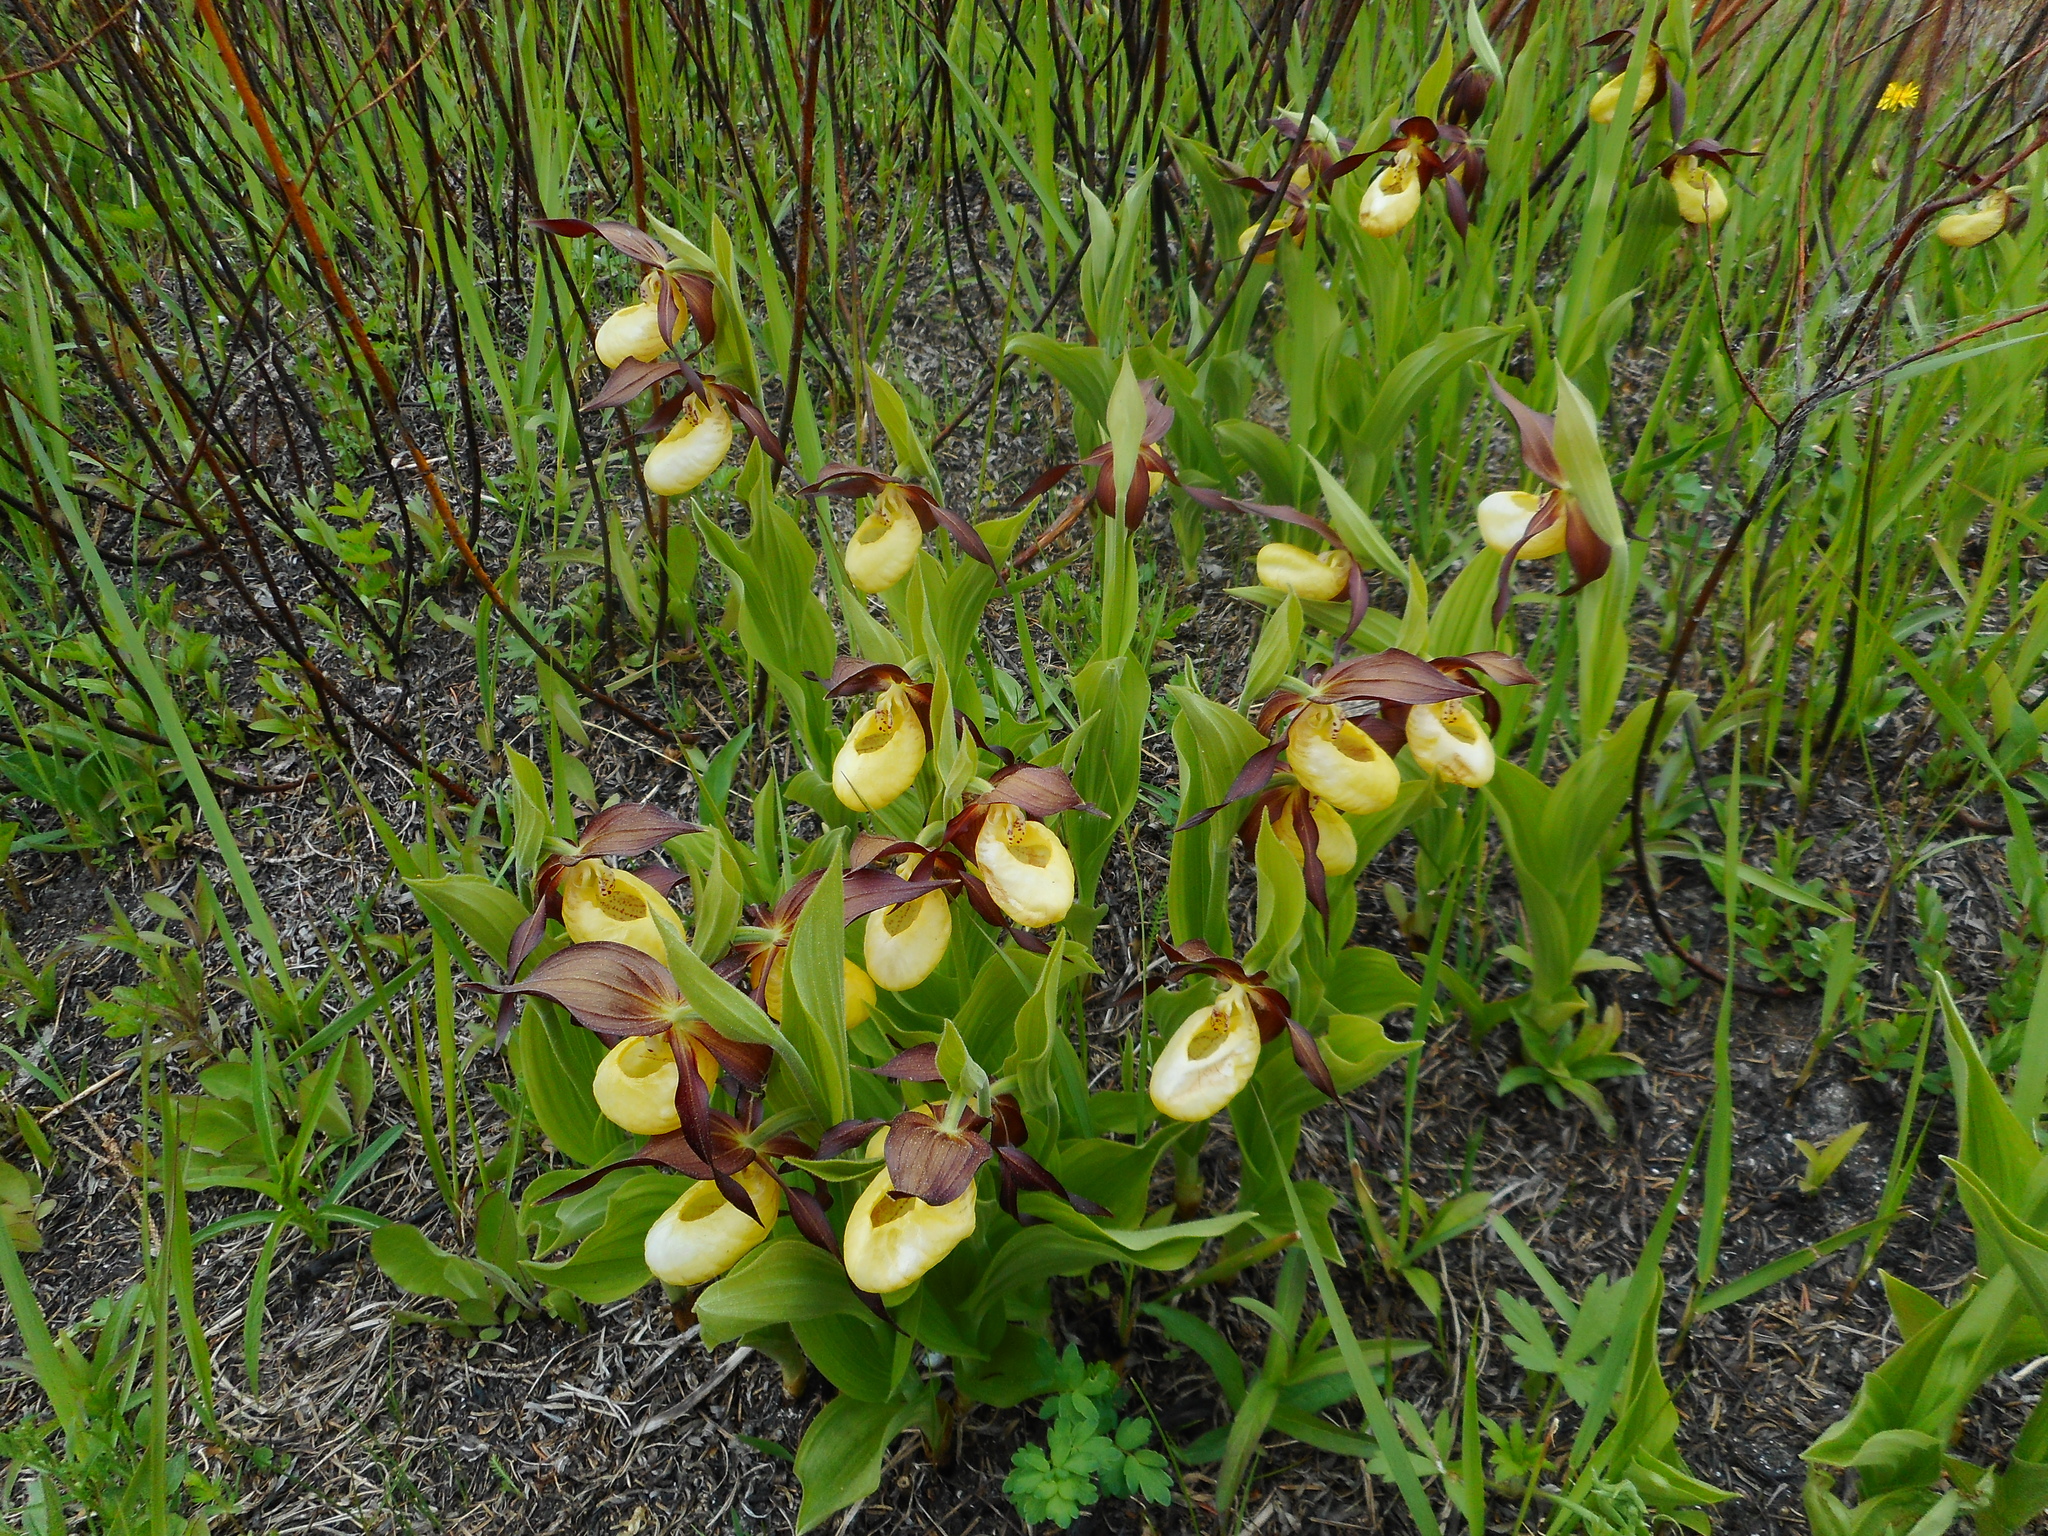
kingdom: Plantae
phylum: Tracheophyta
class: Liliopsida
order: Asparagales
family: Orchidaceae
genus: Cypripedium
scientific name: Cypripedium calceolus
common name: Lady's-slipper
